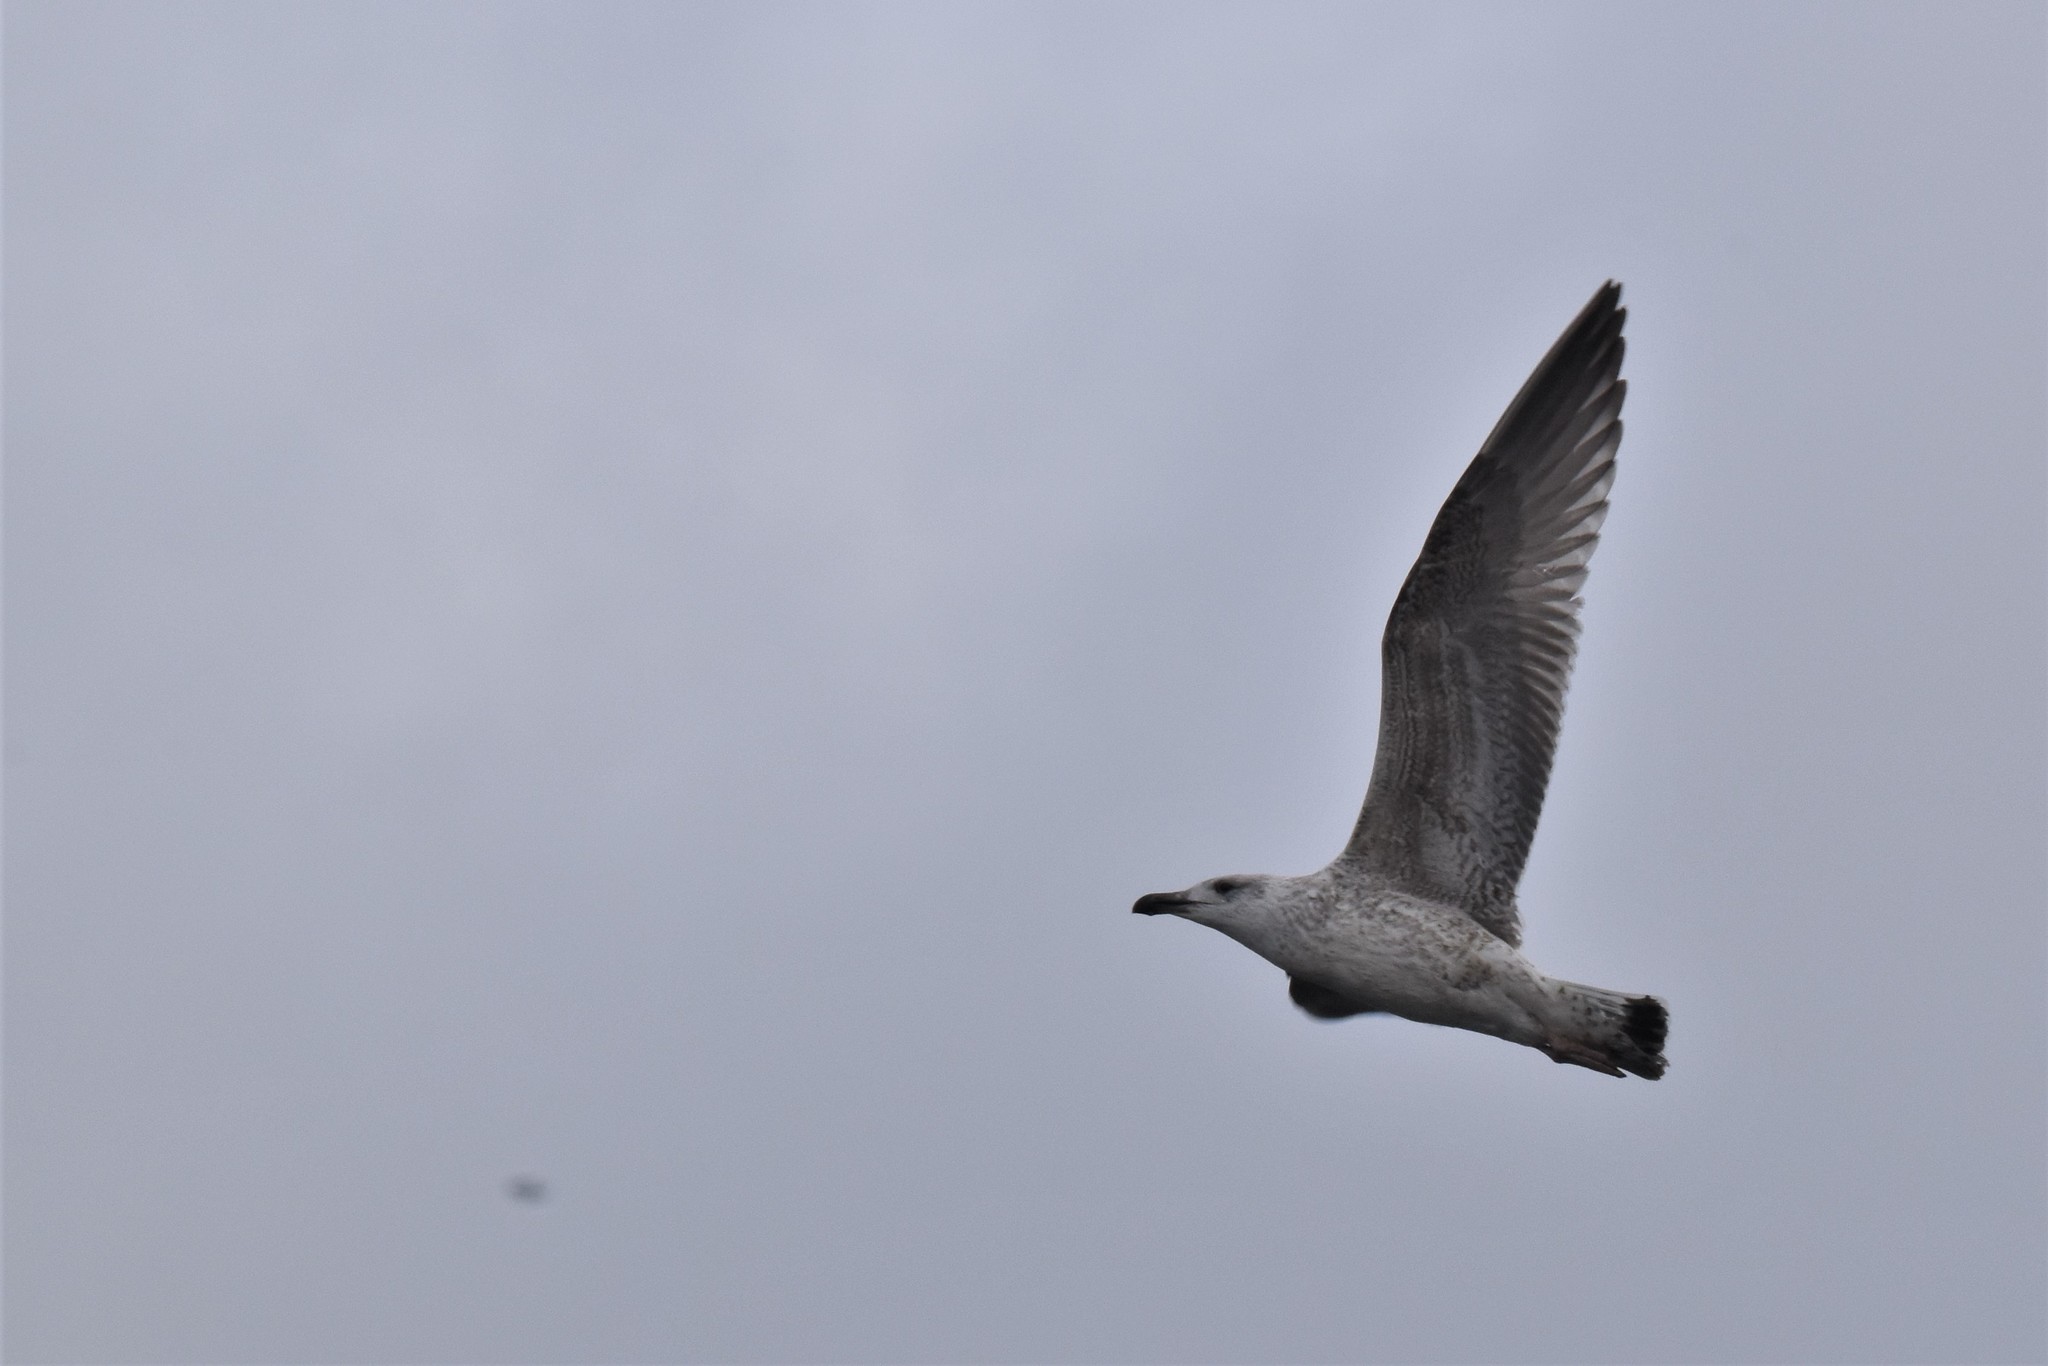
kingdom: Animalia
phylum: Chordata
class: Aves
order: Charadriiformes
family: Laridae
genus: Larus
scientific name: Larus marinus
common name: Great black-backed gull
